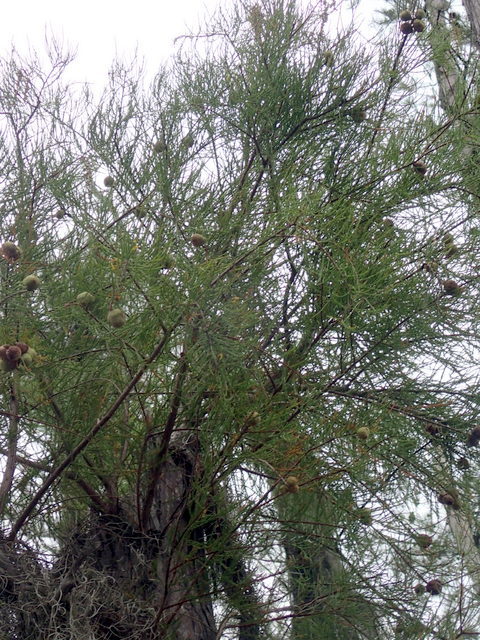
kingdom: Plantae
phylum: Tracheophyta
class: Pinopsida
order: Pinales
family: Cupressaceae
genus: Taxodium
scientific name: Taxodium distichum
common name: Bald cypress
